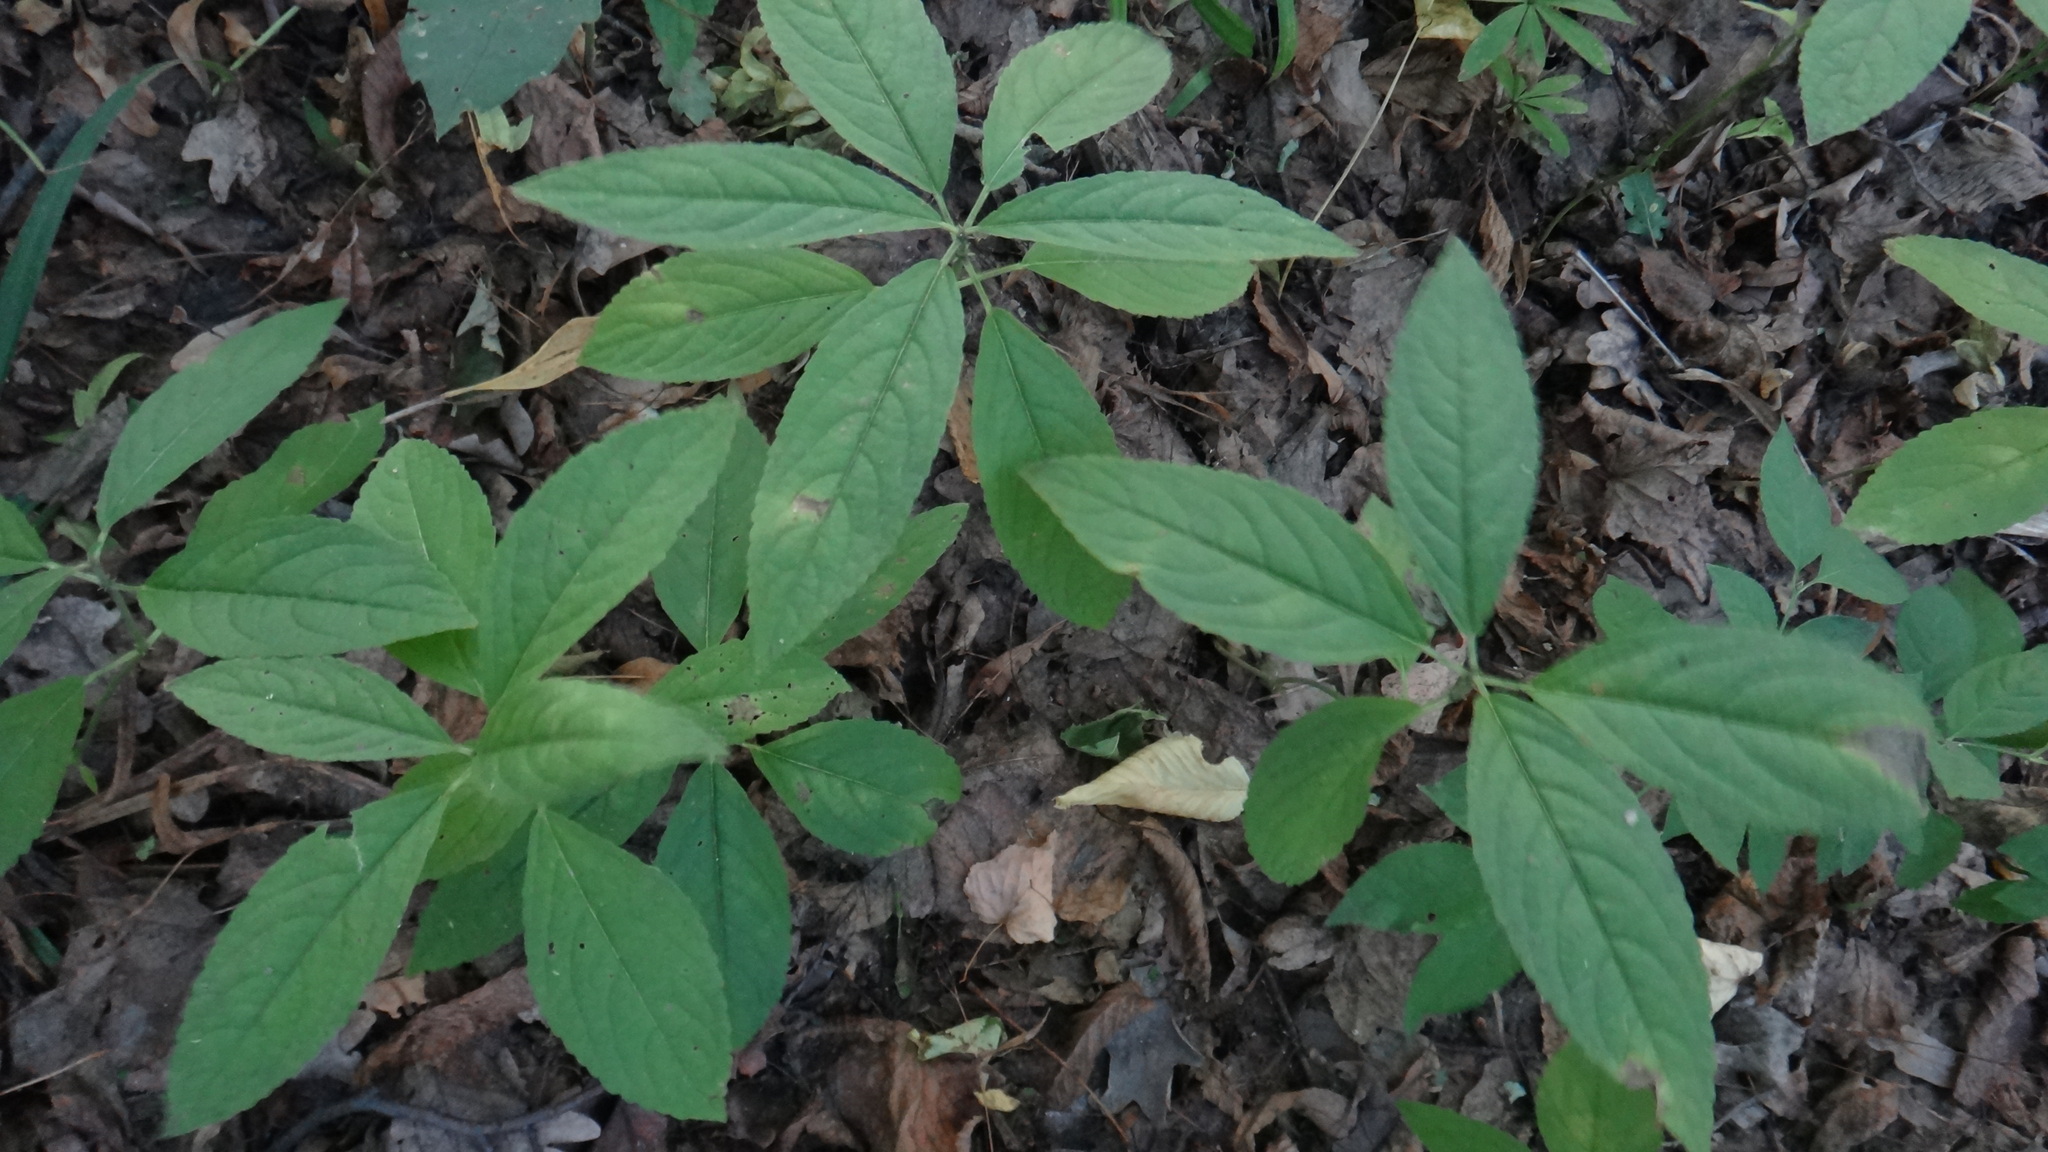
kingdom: Plantae
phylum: Tracheophyta
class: Magnoliopsida
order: Malpighiales
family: Euphorbiaceae
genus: Mercurialis
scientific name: Mercurialis perennis
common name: Dog mercury
